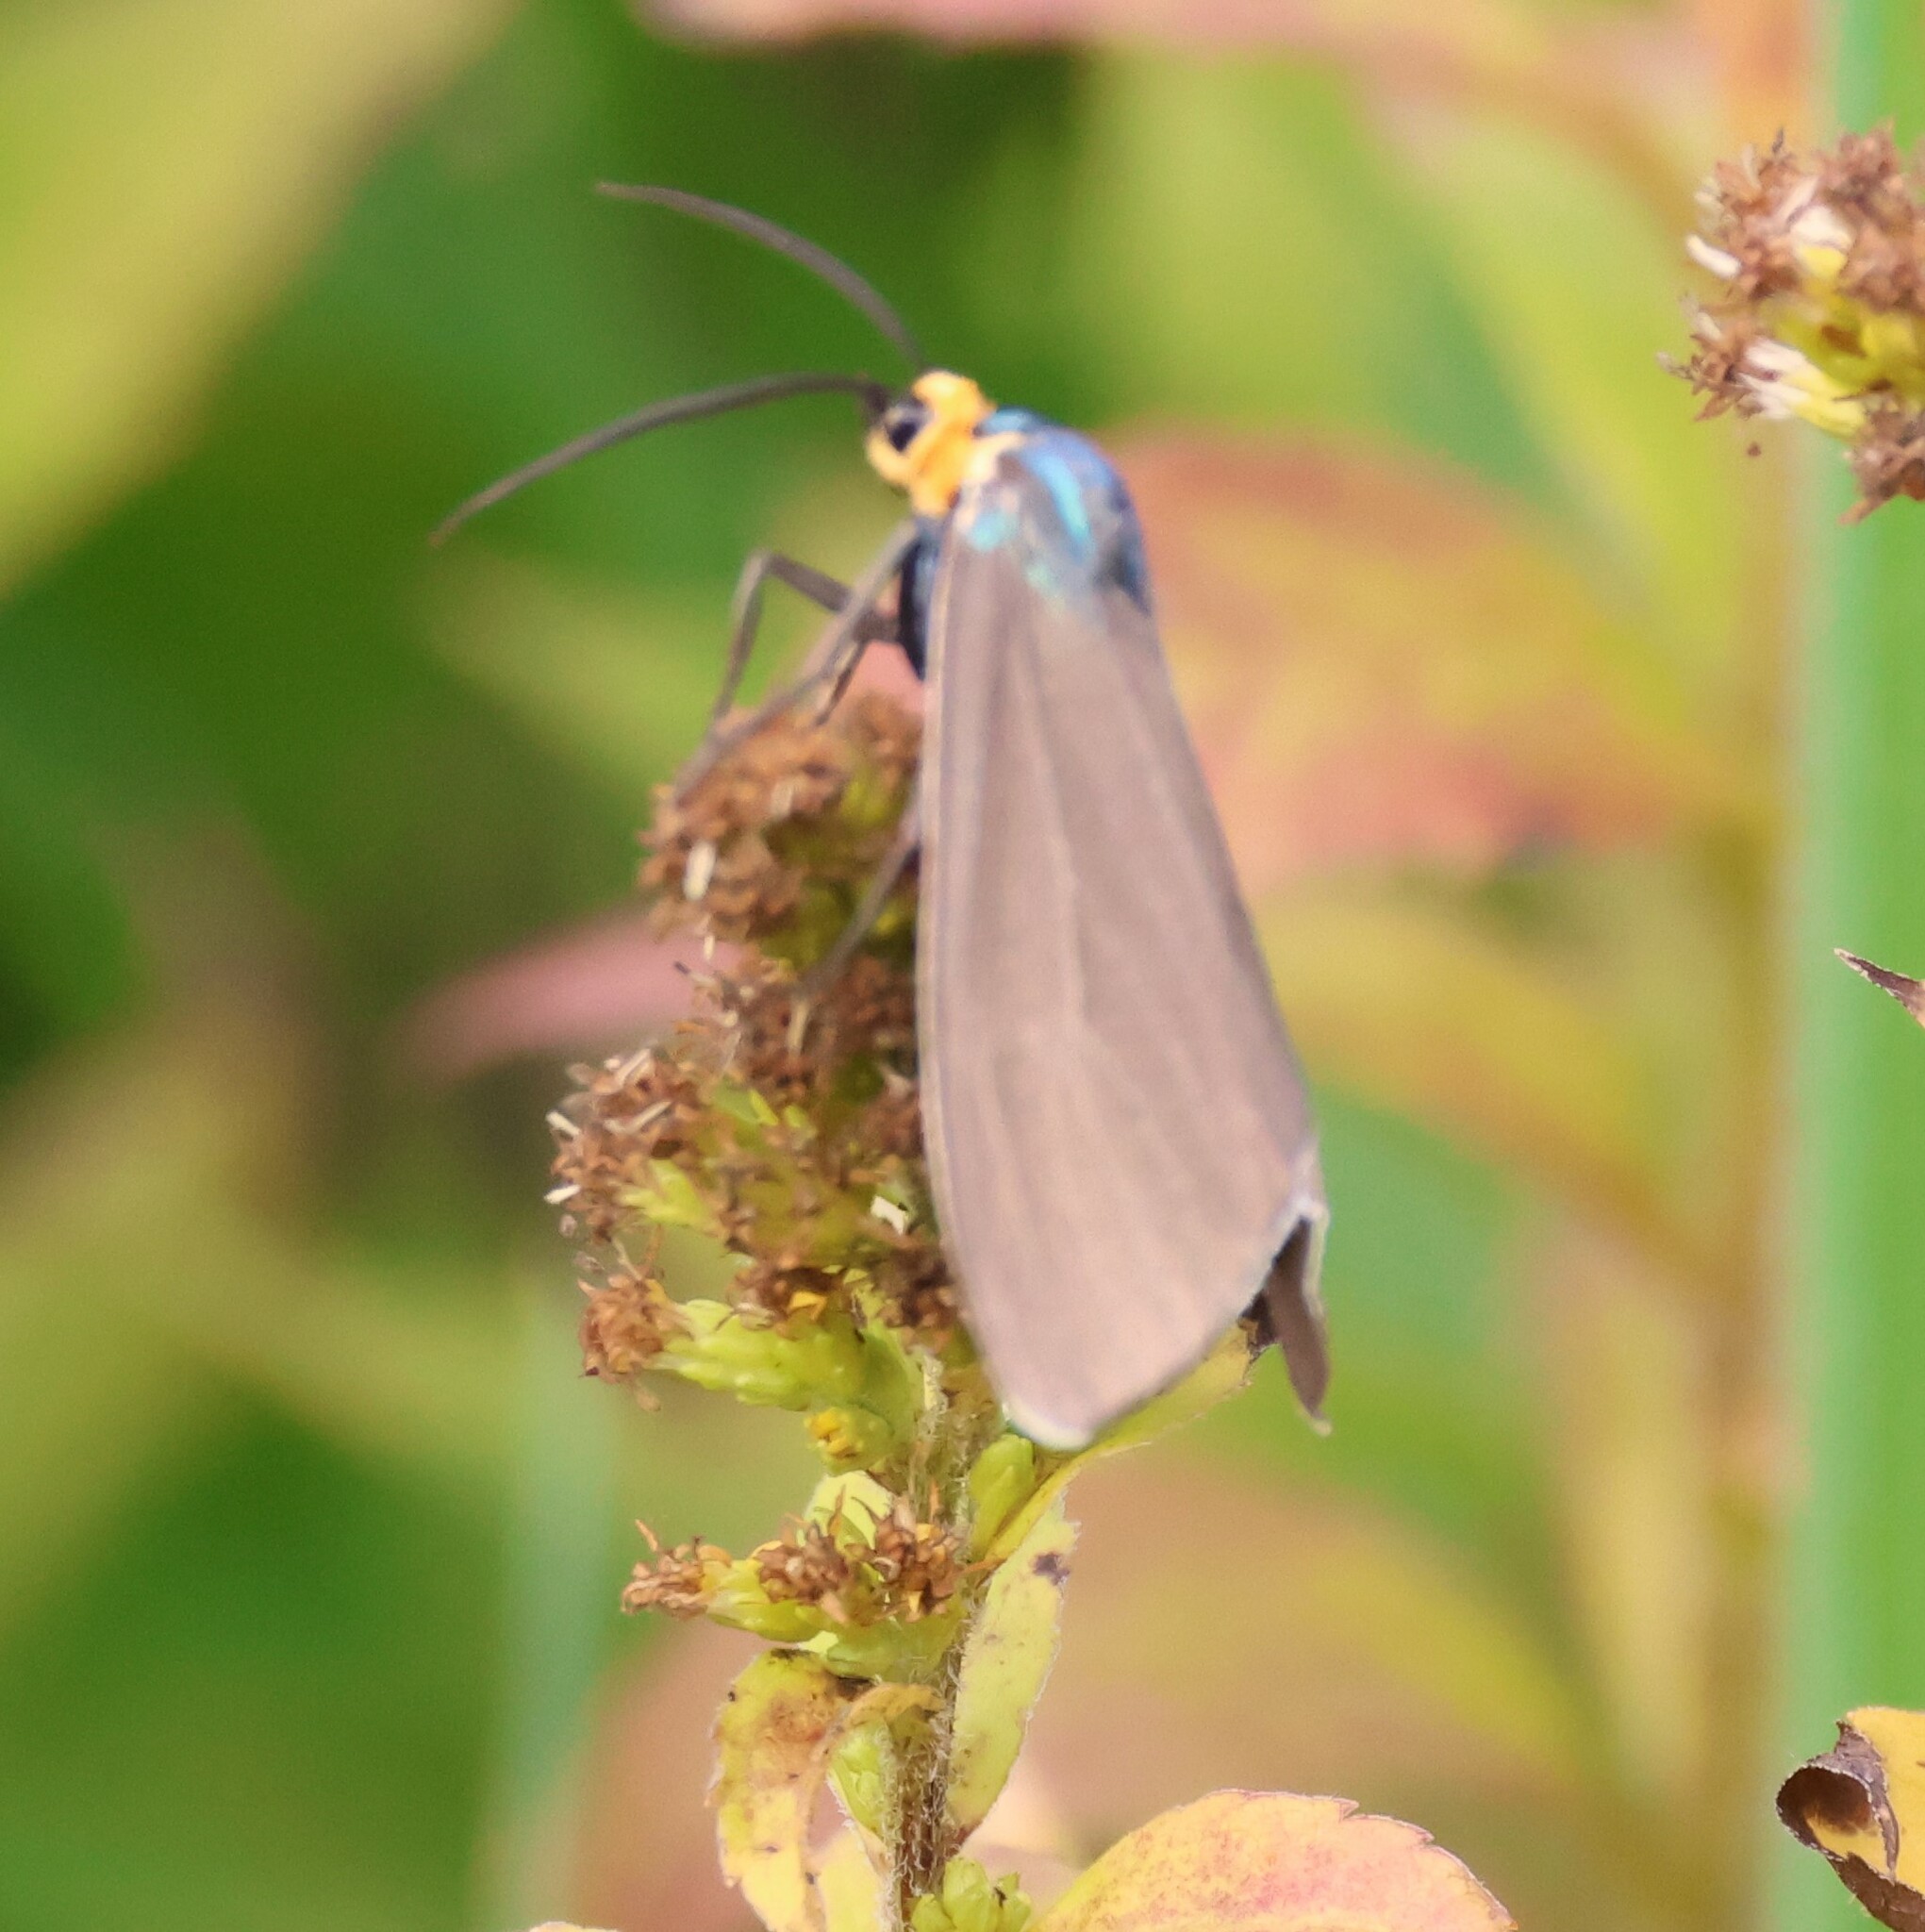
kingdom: Animalia
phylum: Arthropoda
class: Insecta
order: Lepidoptera
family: Erebidae
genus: Ctenucha
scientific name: Ctenucha virginica
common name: Virginia ctenucha moth
